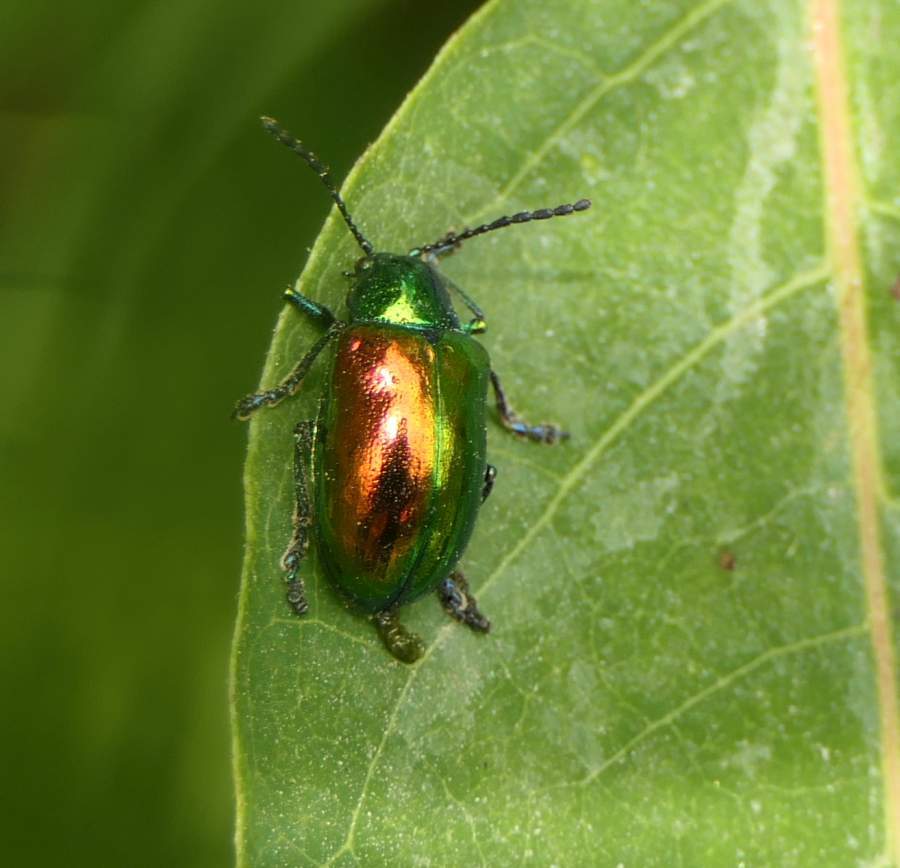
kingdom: Animalia
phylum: Arthropoda
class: Insecta
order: Coleoptera
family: Chrysomelidae
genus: Chrysochus
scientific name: Chrysochus auratus
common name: Dogbane leaf beetle
